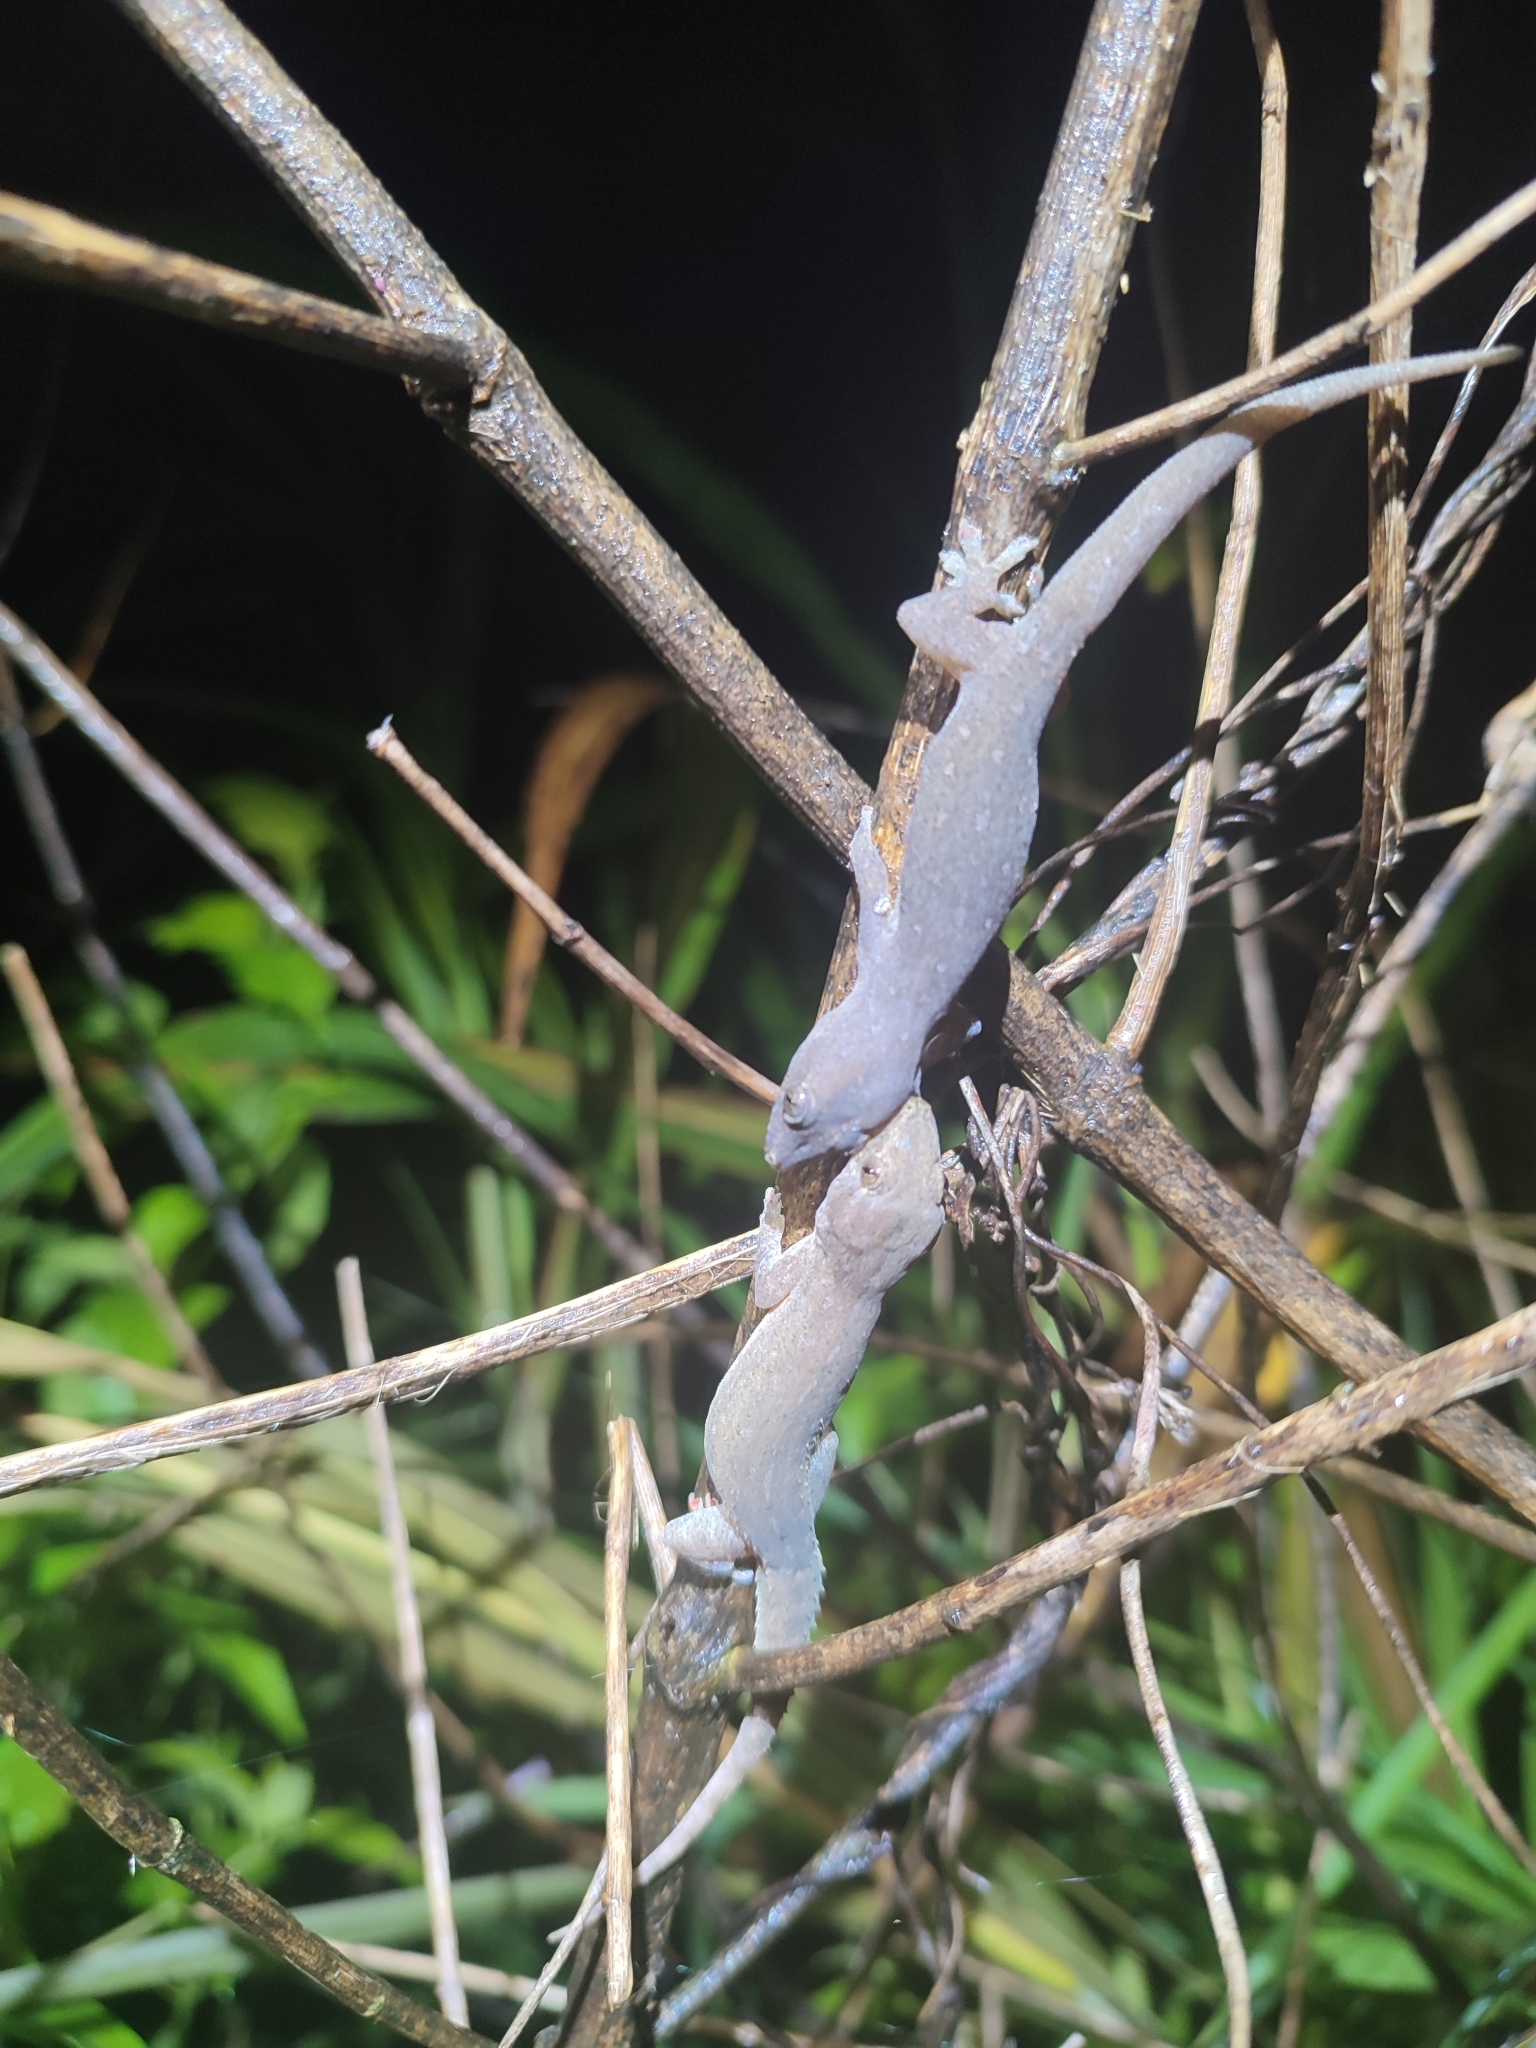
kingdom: Animalia
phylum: Chordata
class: Squamata
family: Gekkonidae
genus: Hemidactylus
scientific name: Hemidactylus frenatus
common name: Common house gecko
